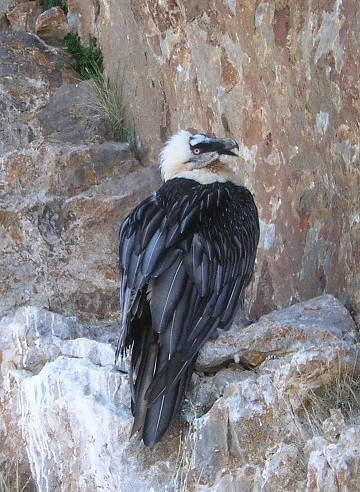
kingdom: Animalia
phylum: Chordata
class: Aves
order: Accipitriformes
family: Accipitridae
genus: Gypaetus
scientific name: Gypaetus barbatus
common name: Bearded vulture
